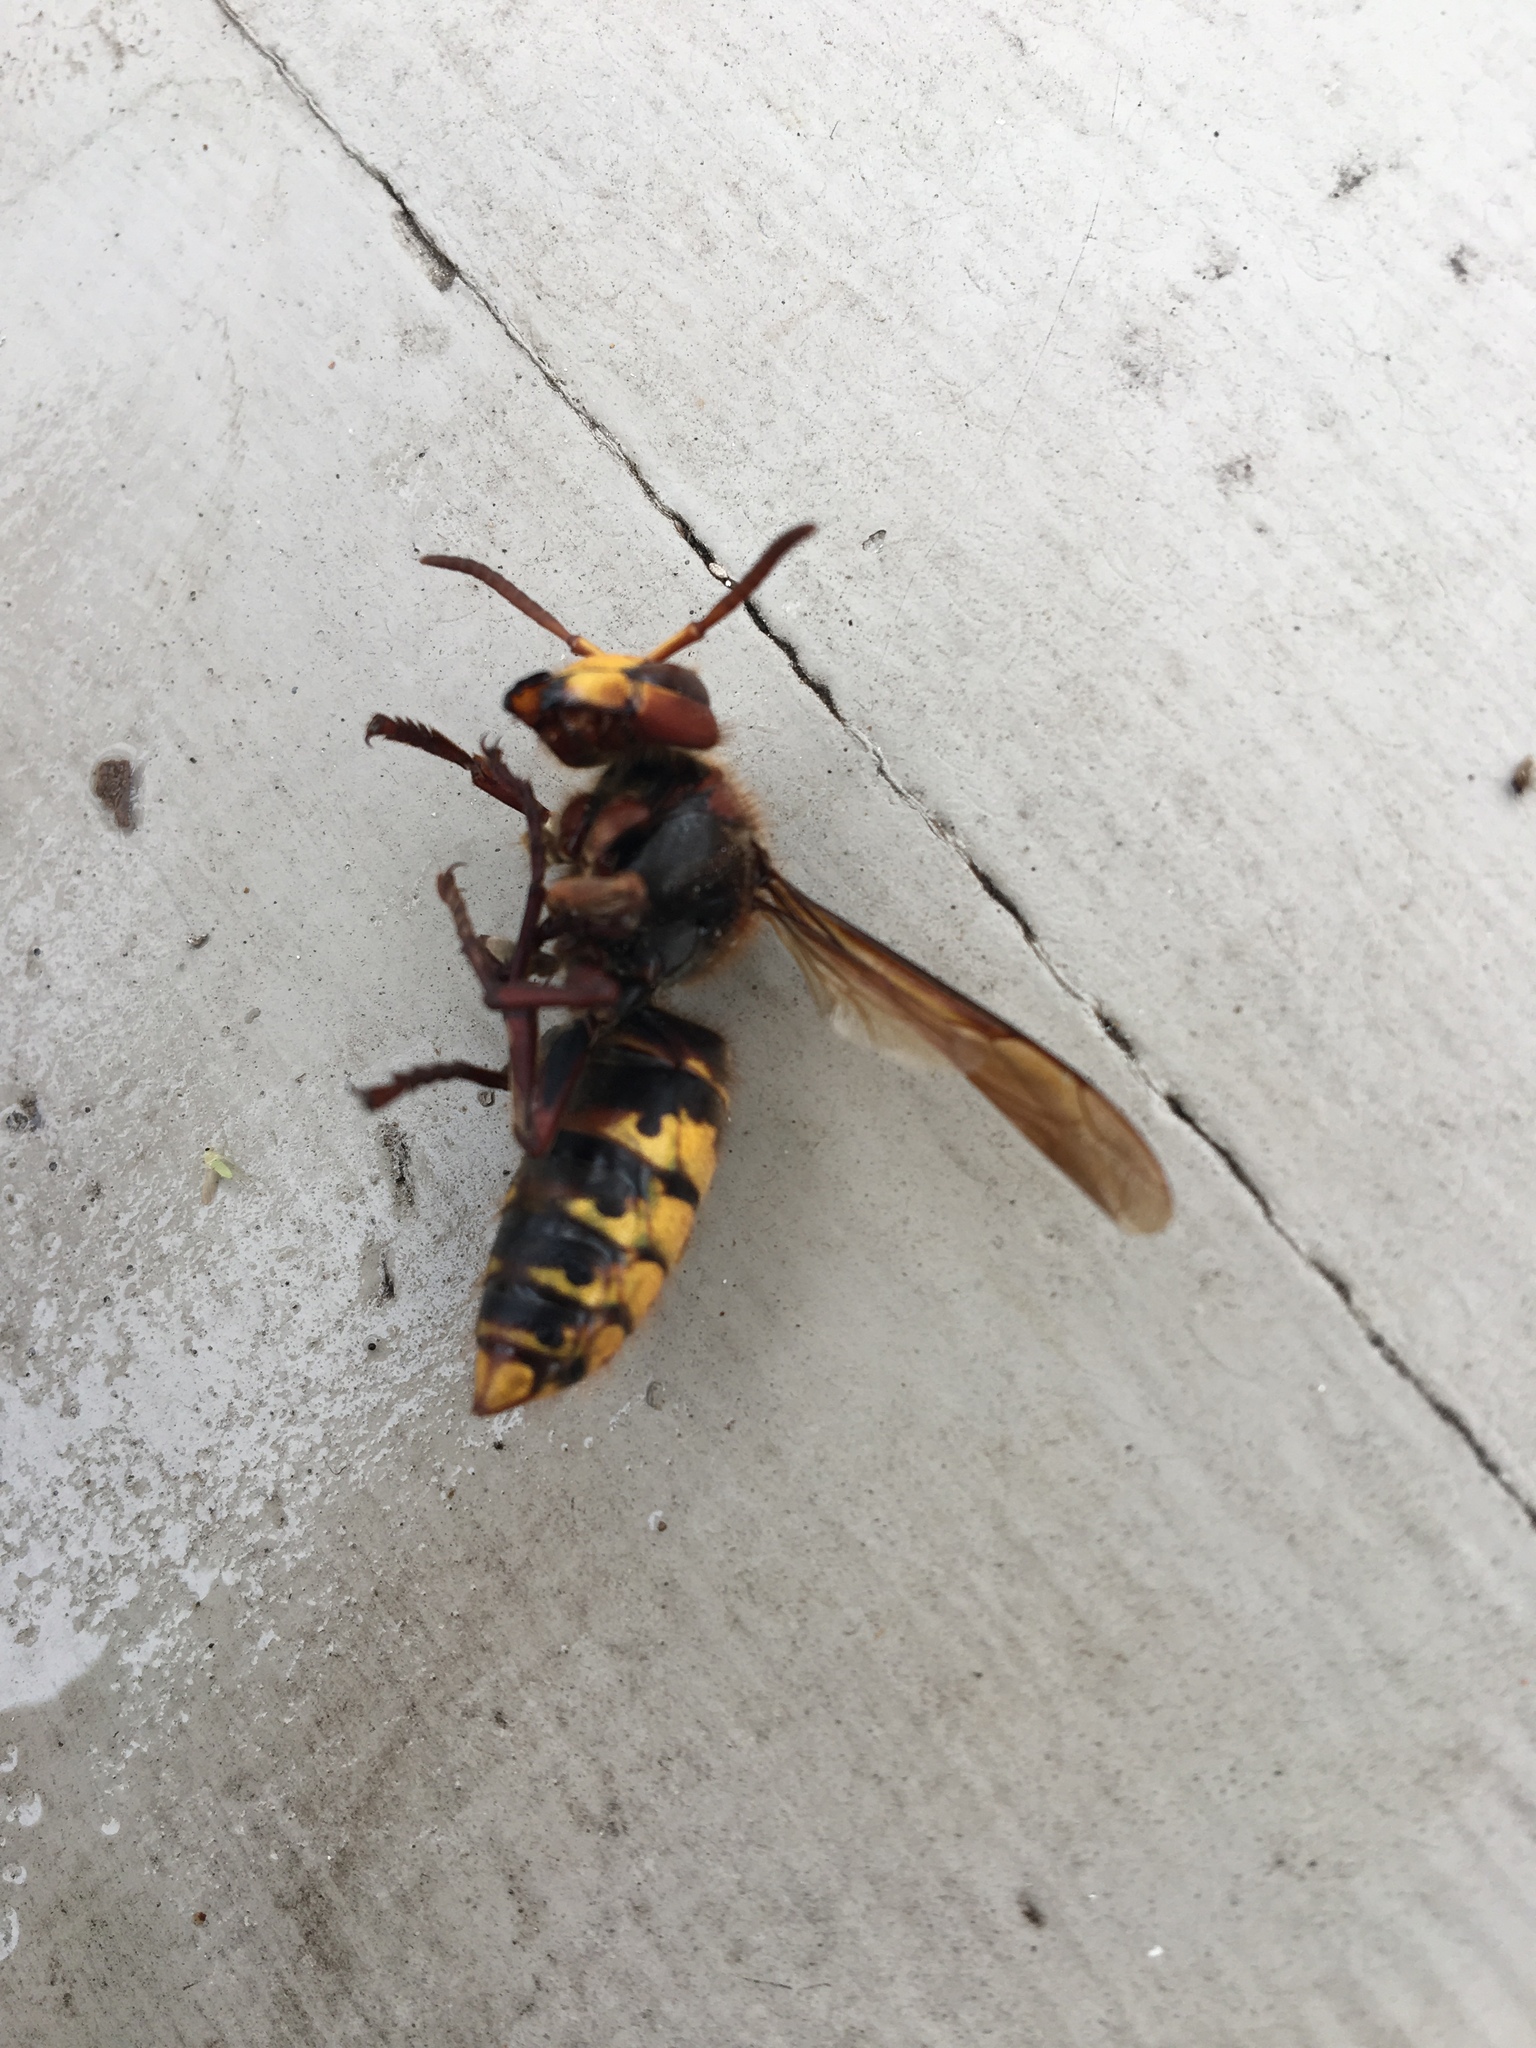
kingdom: Animalia
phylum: Arthropoda
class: Insecta
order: Hymenoptera
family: Vespidae
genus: Vespa
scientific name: Vespa crabro
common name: Hornet
